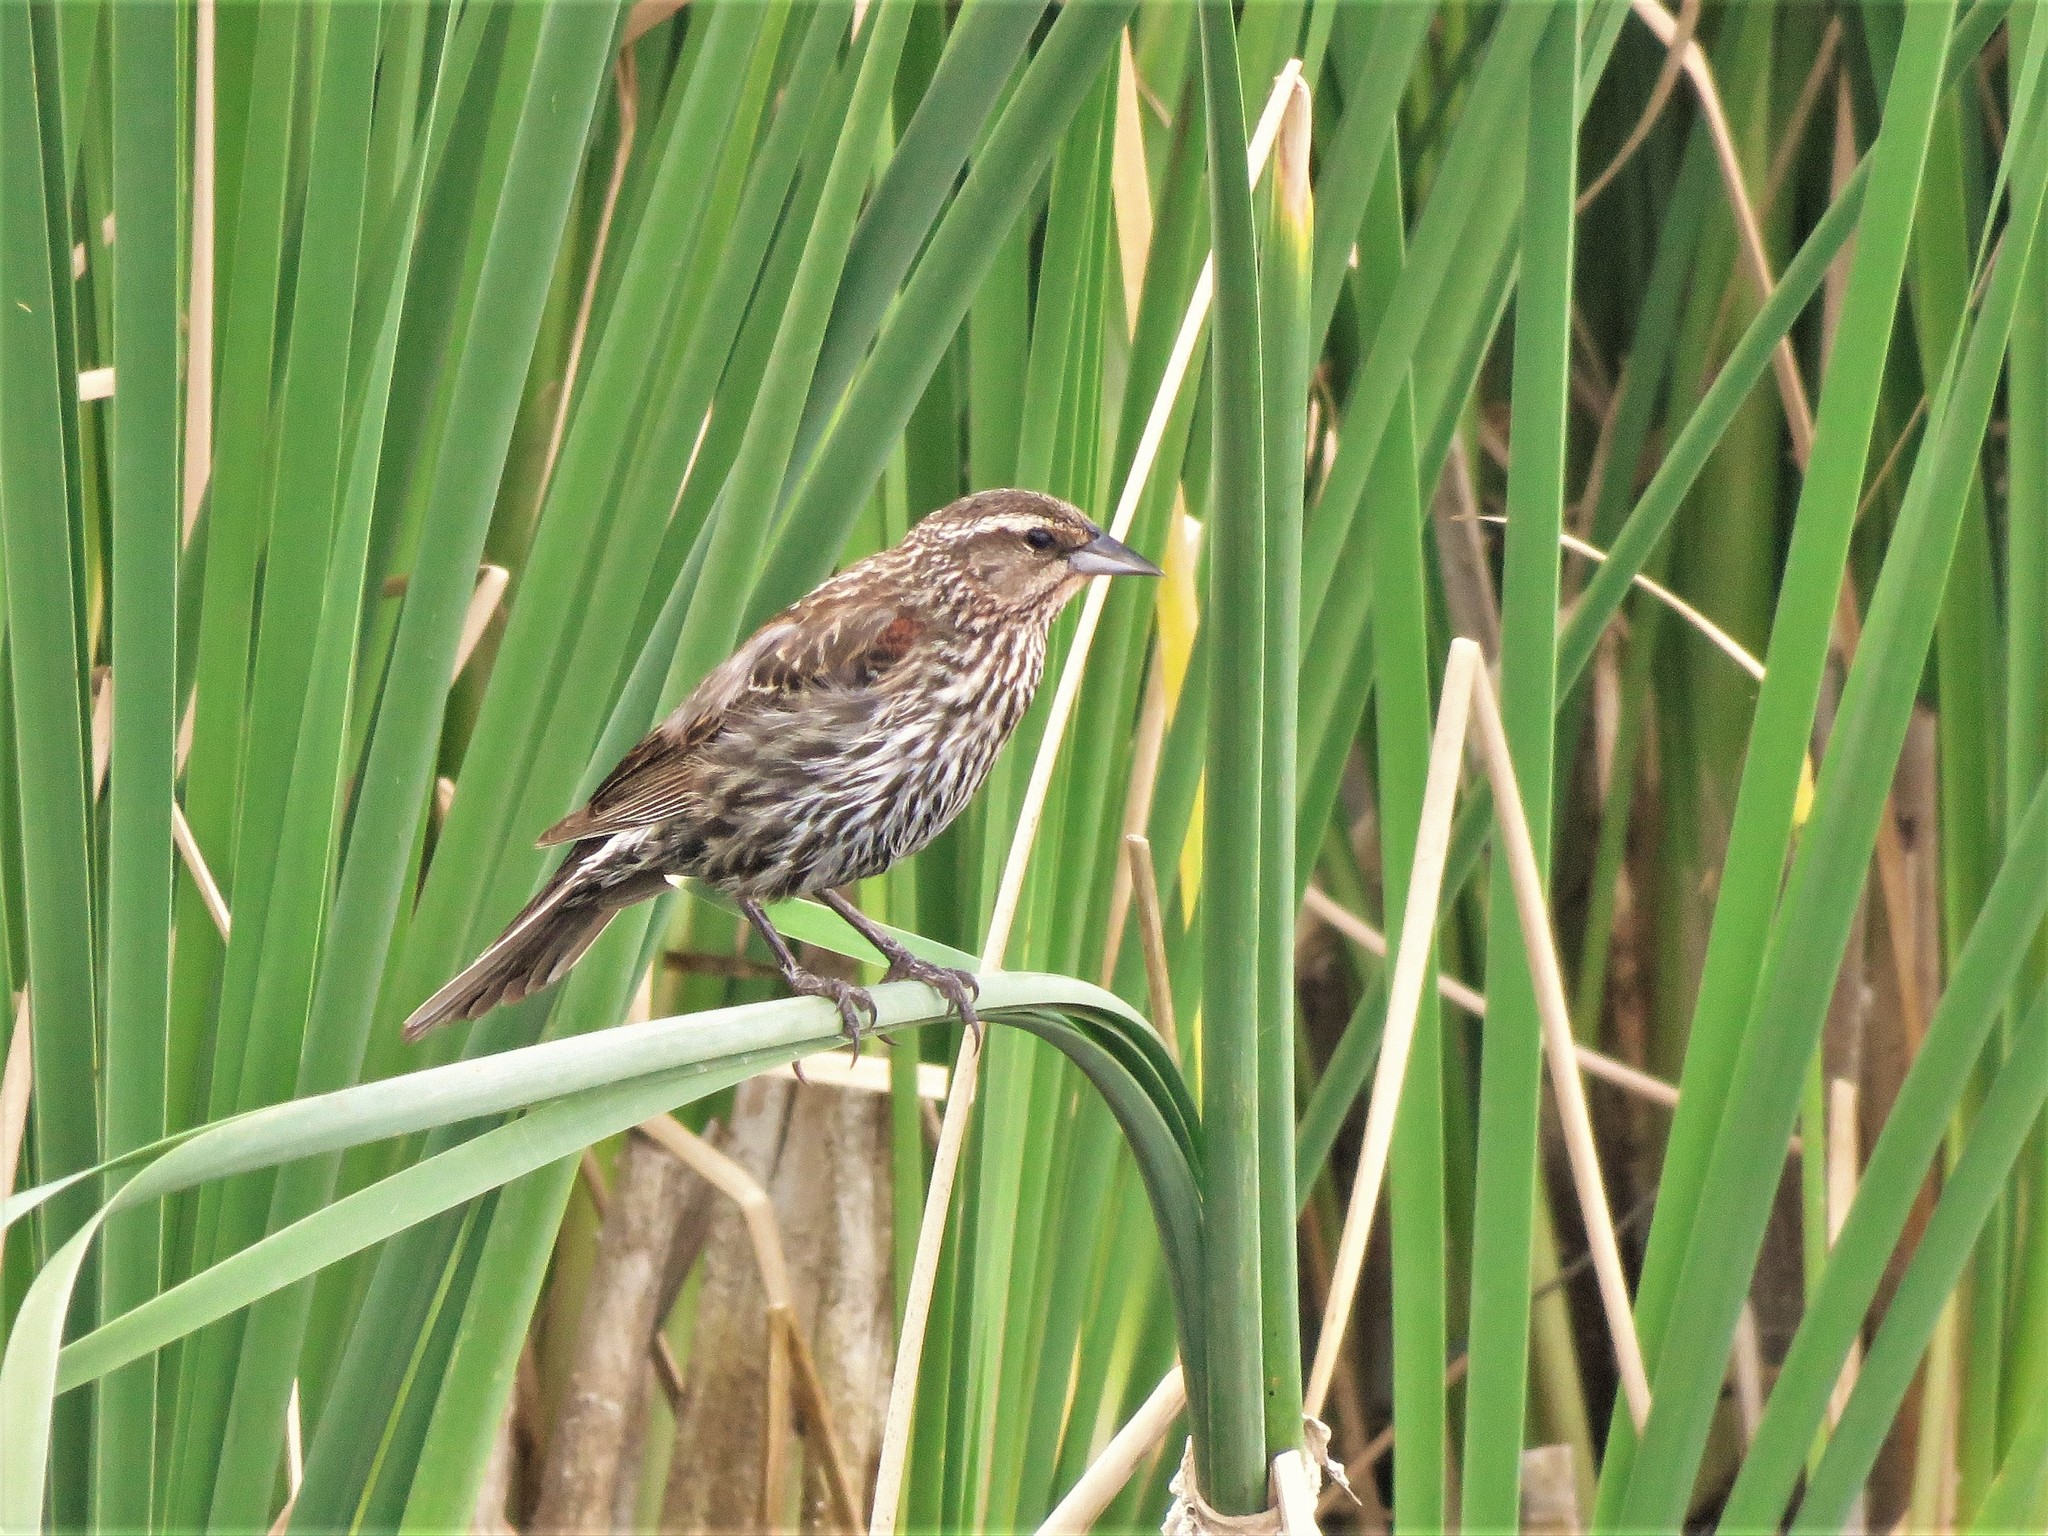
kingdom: Animalia
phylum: Chordata
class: Aves
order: Passeriformes
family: Icteridae
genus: Agelaius
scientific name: Agelaius phoeniceus
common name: Red-winged blackbird
